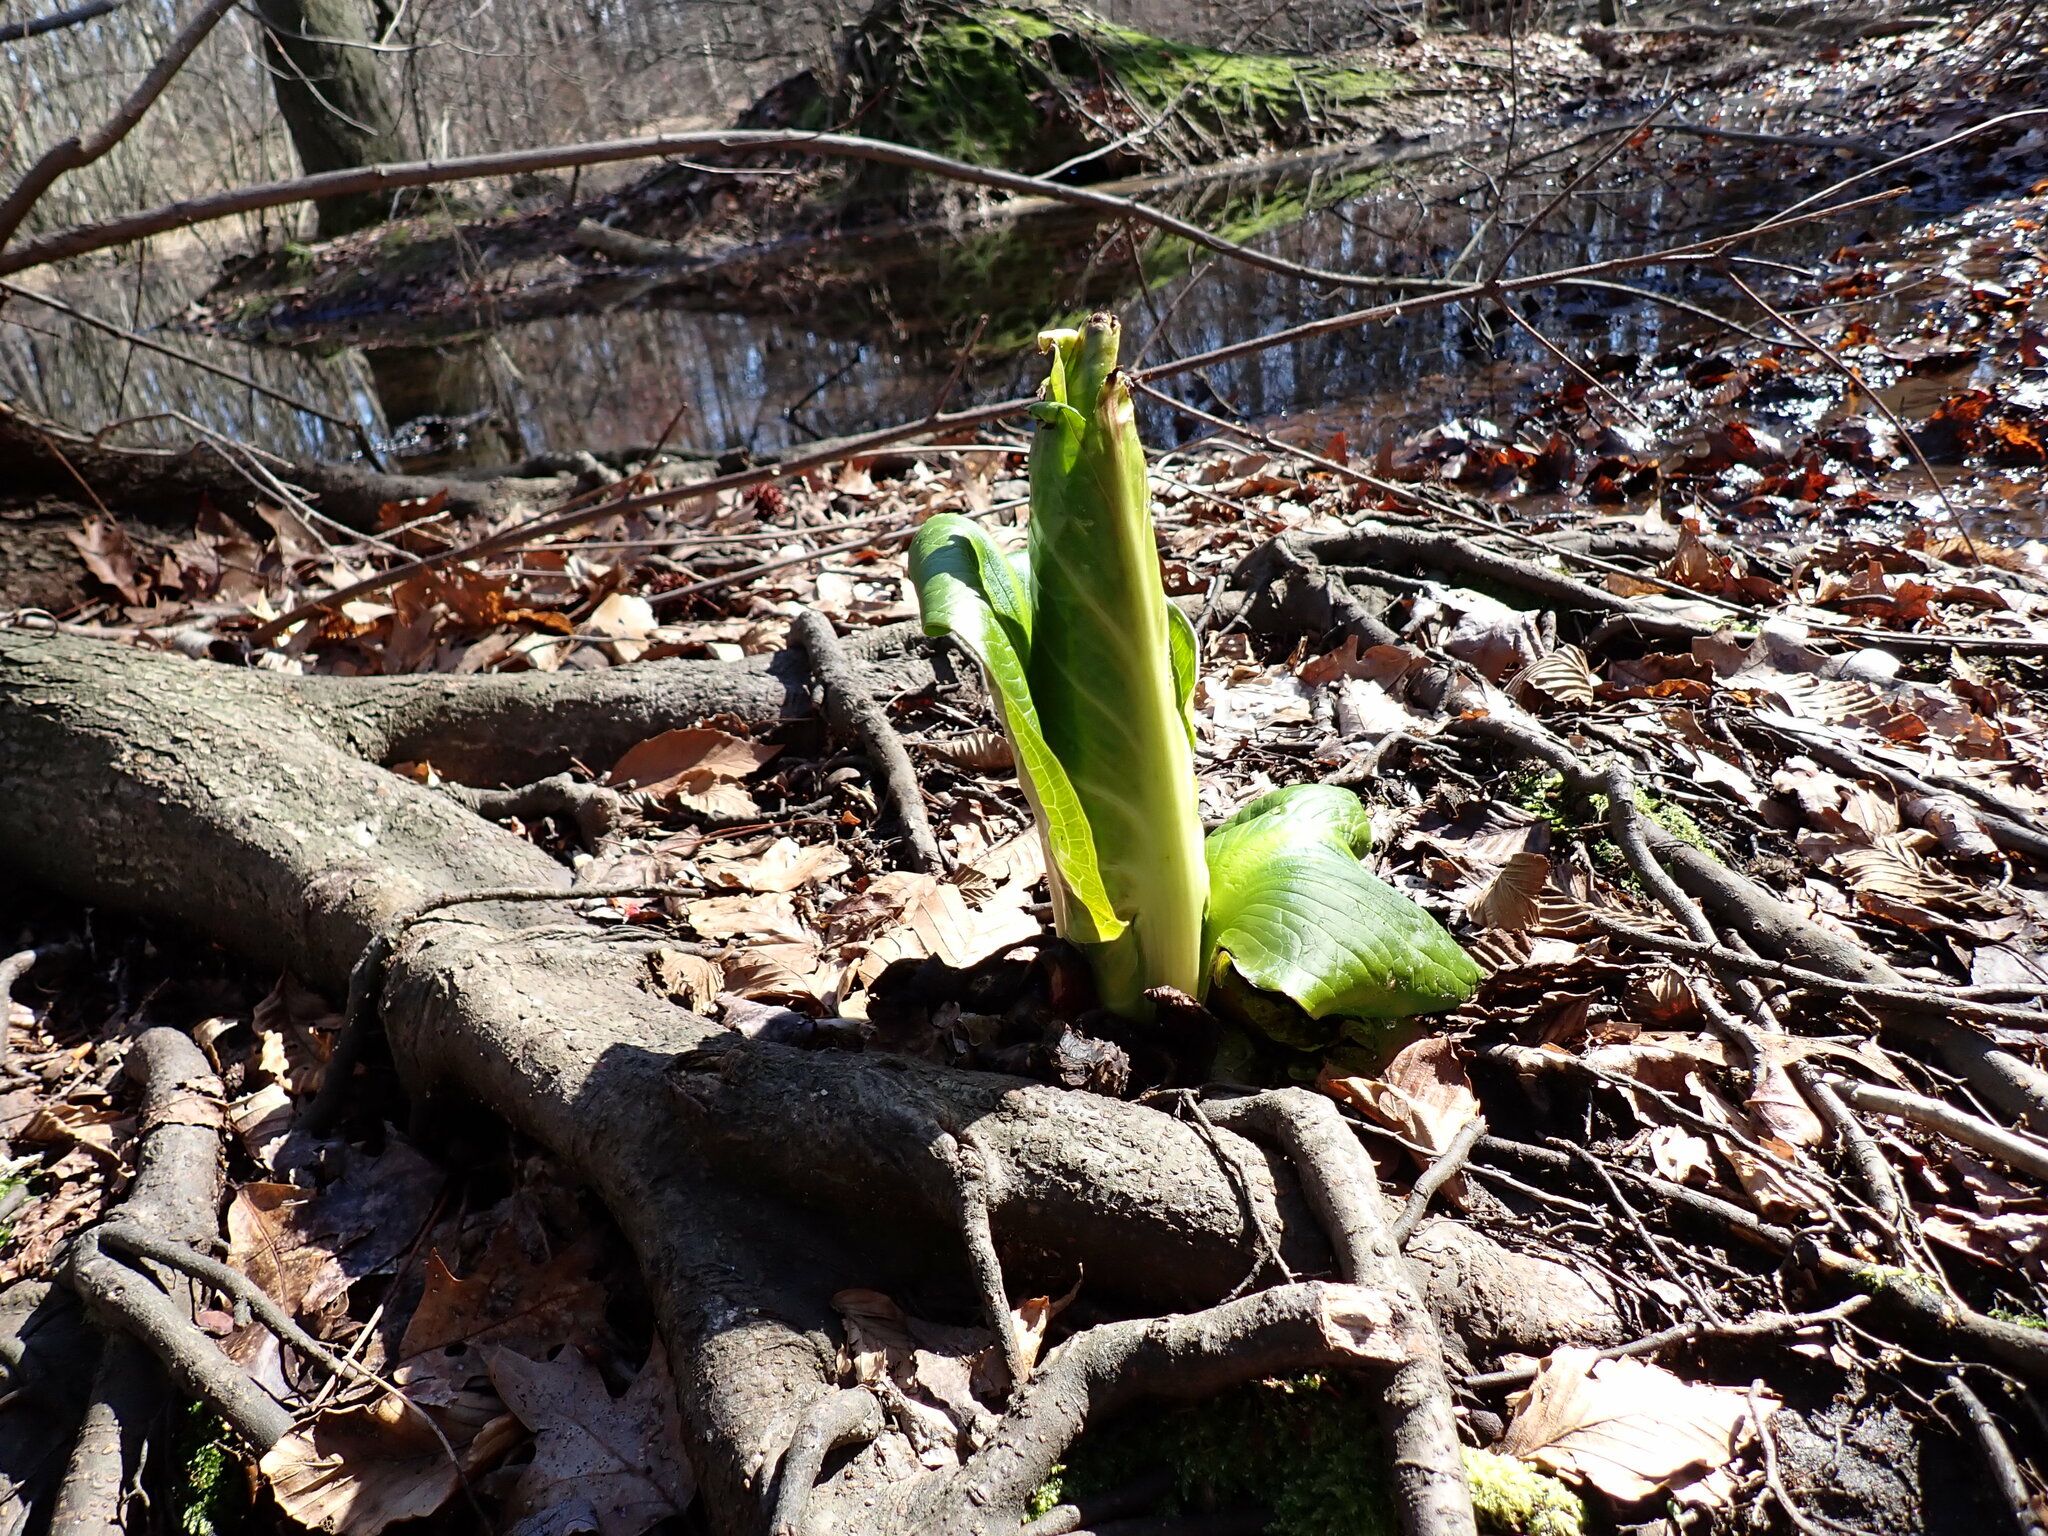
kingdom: Plantae
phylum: Tracheophyta
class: Liliopsida
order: Alismatales
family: Araceae
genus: Symplocarpus
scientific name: Symplocarpus foetidus
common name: Eastern skunk cabbage
